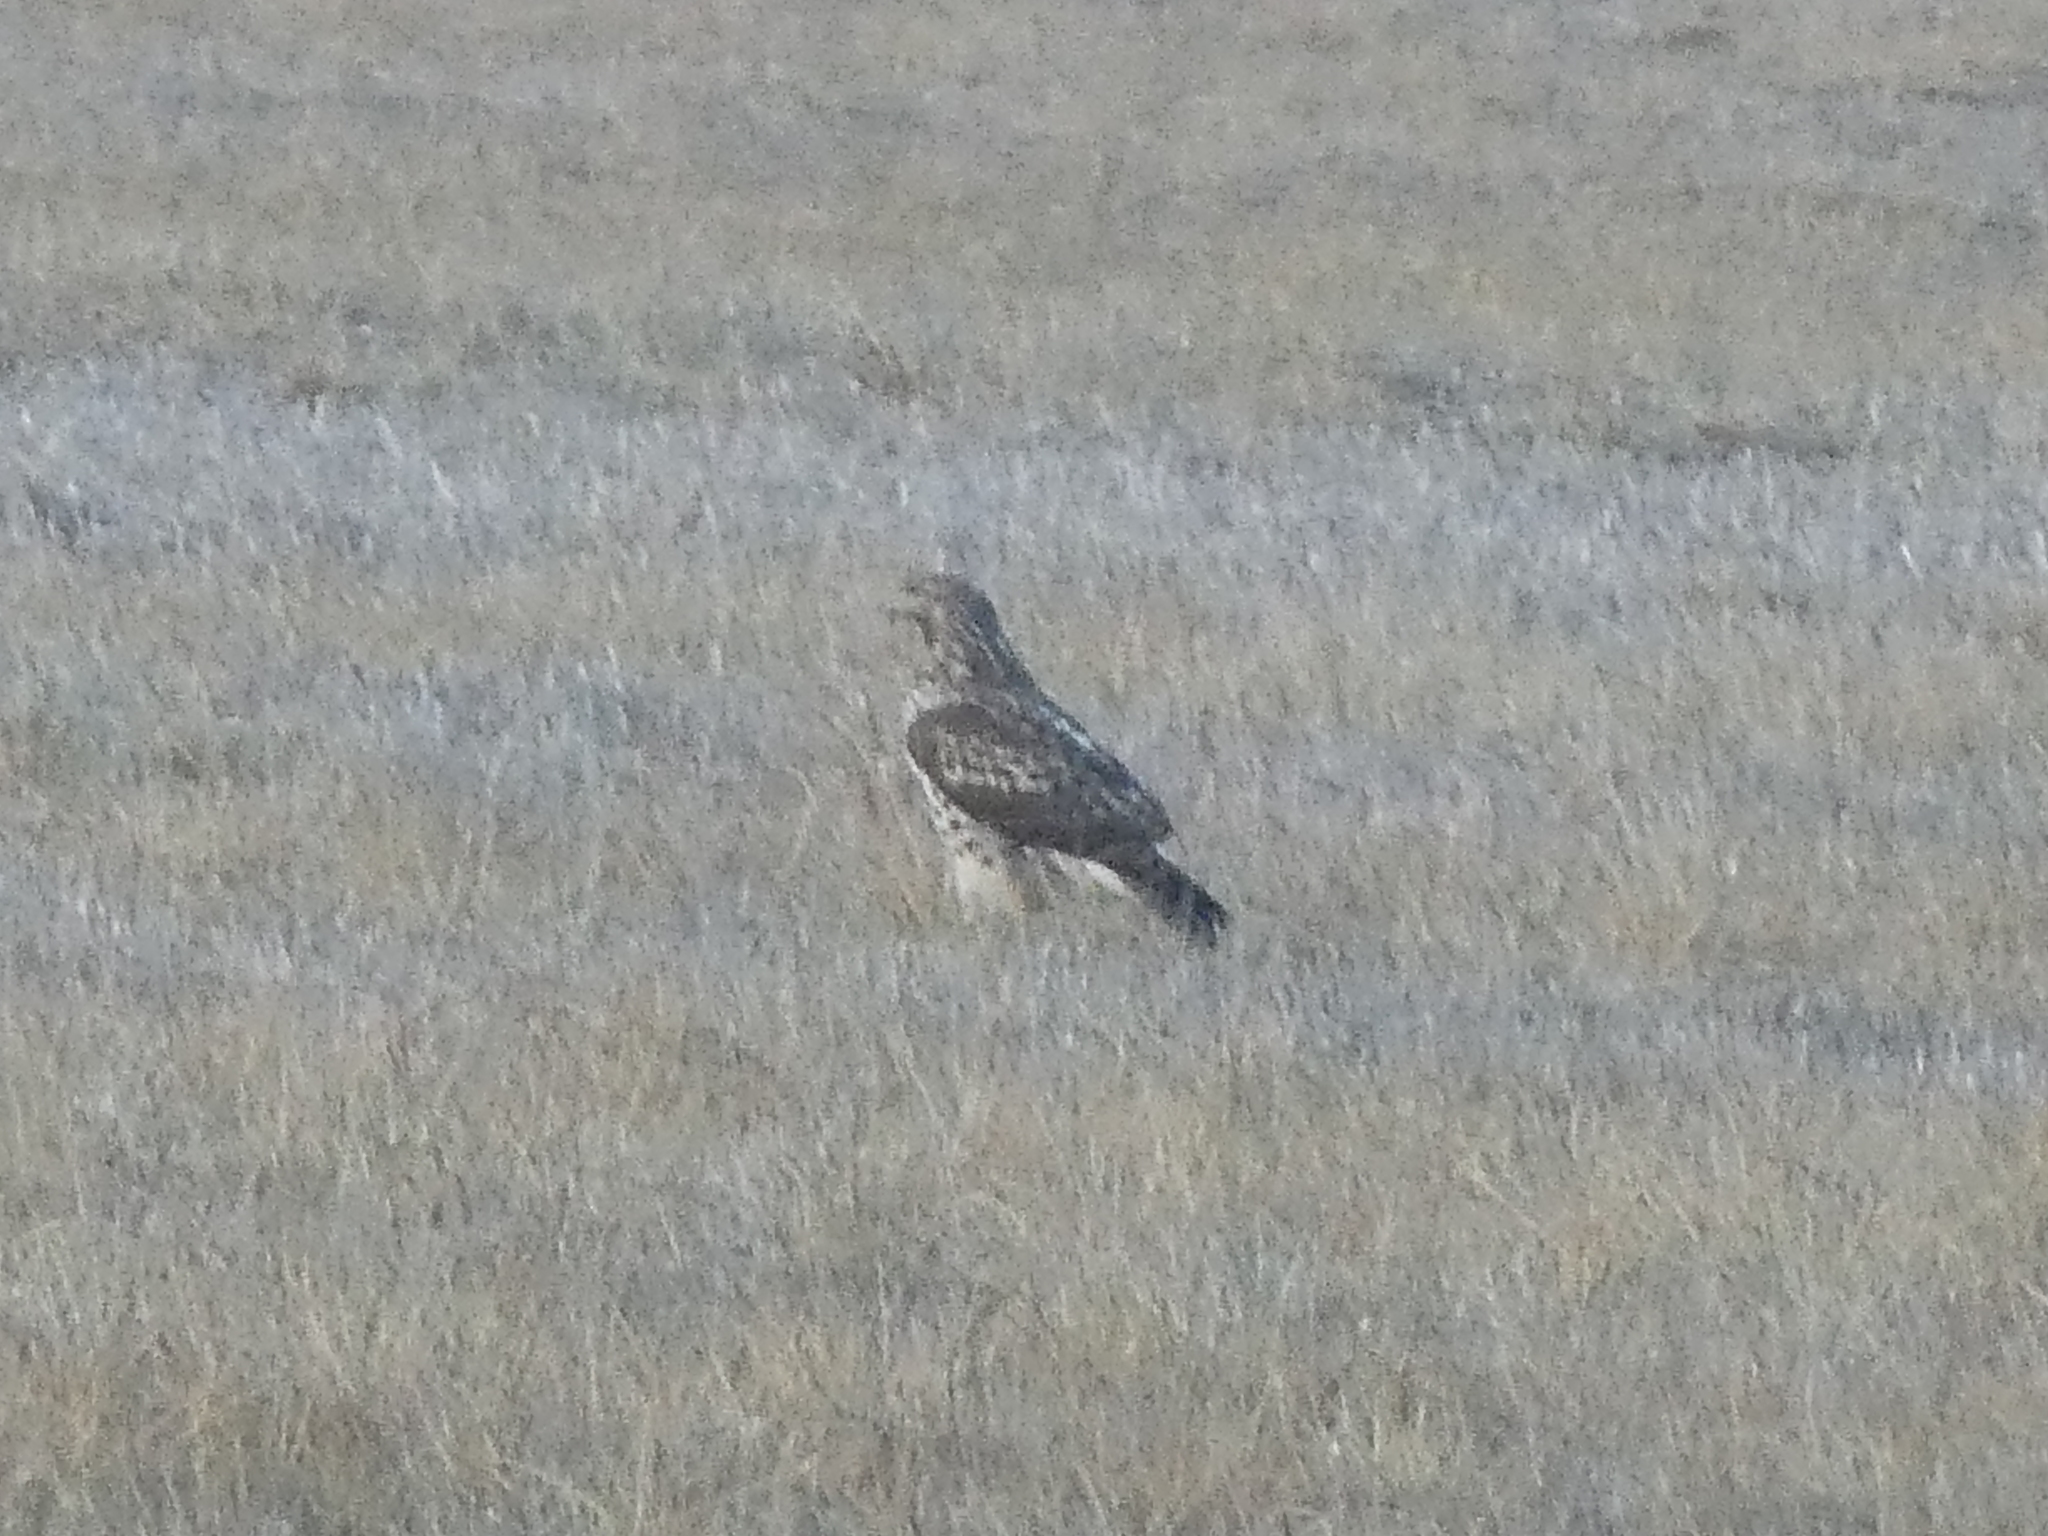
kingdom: Animalia
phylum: Chordata
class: Aves
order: Accipitriformes
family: Accipitridae
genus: Buteo
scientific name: Buteo jamaicensis
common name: Red-tailed hawk
